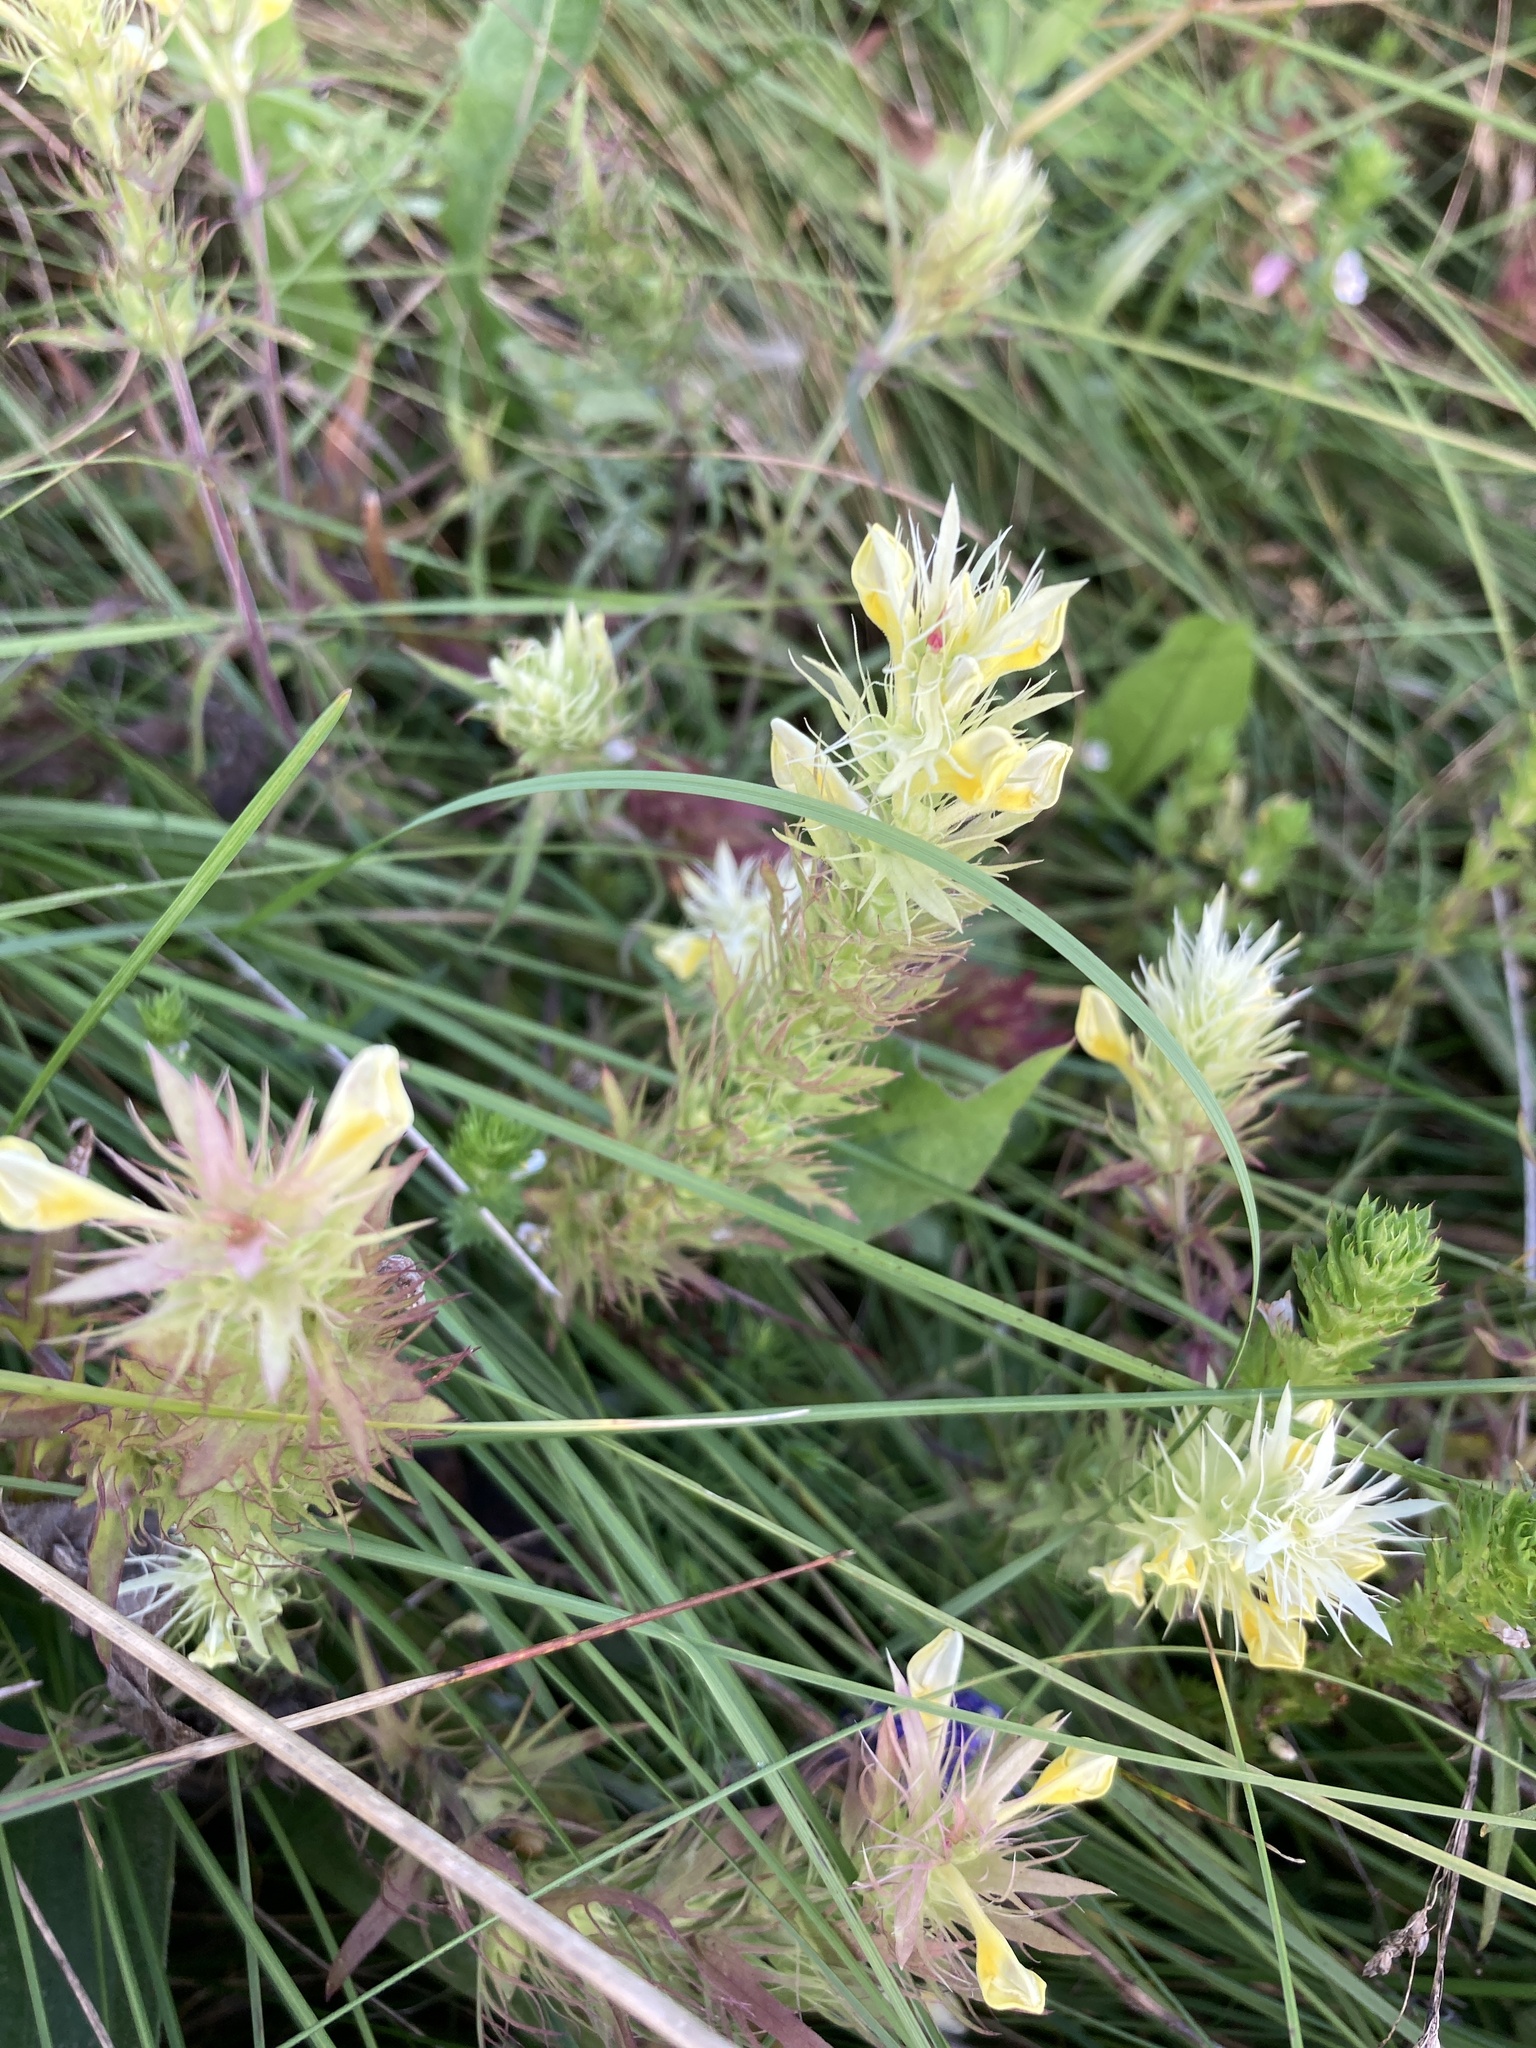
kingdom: Plantae
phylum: Tracheophyta
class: Magnoliopsida
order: Lamiales
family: Orobanchaceae
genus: Melampyrum
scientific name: Melampyrum arvense
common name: Field cow-wheat
